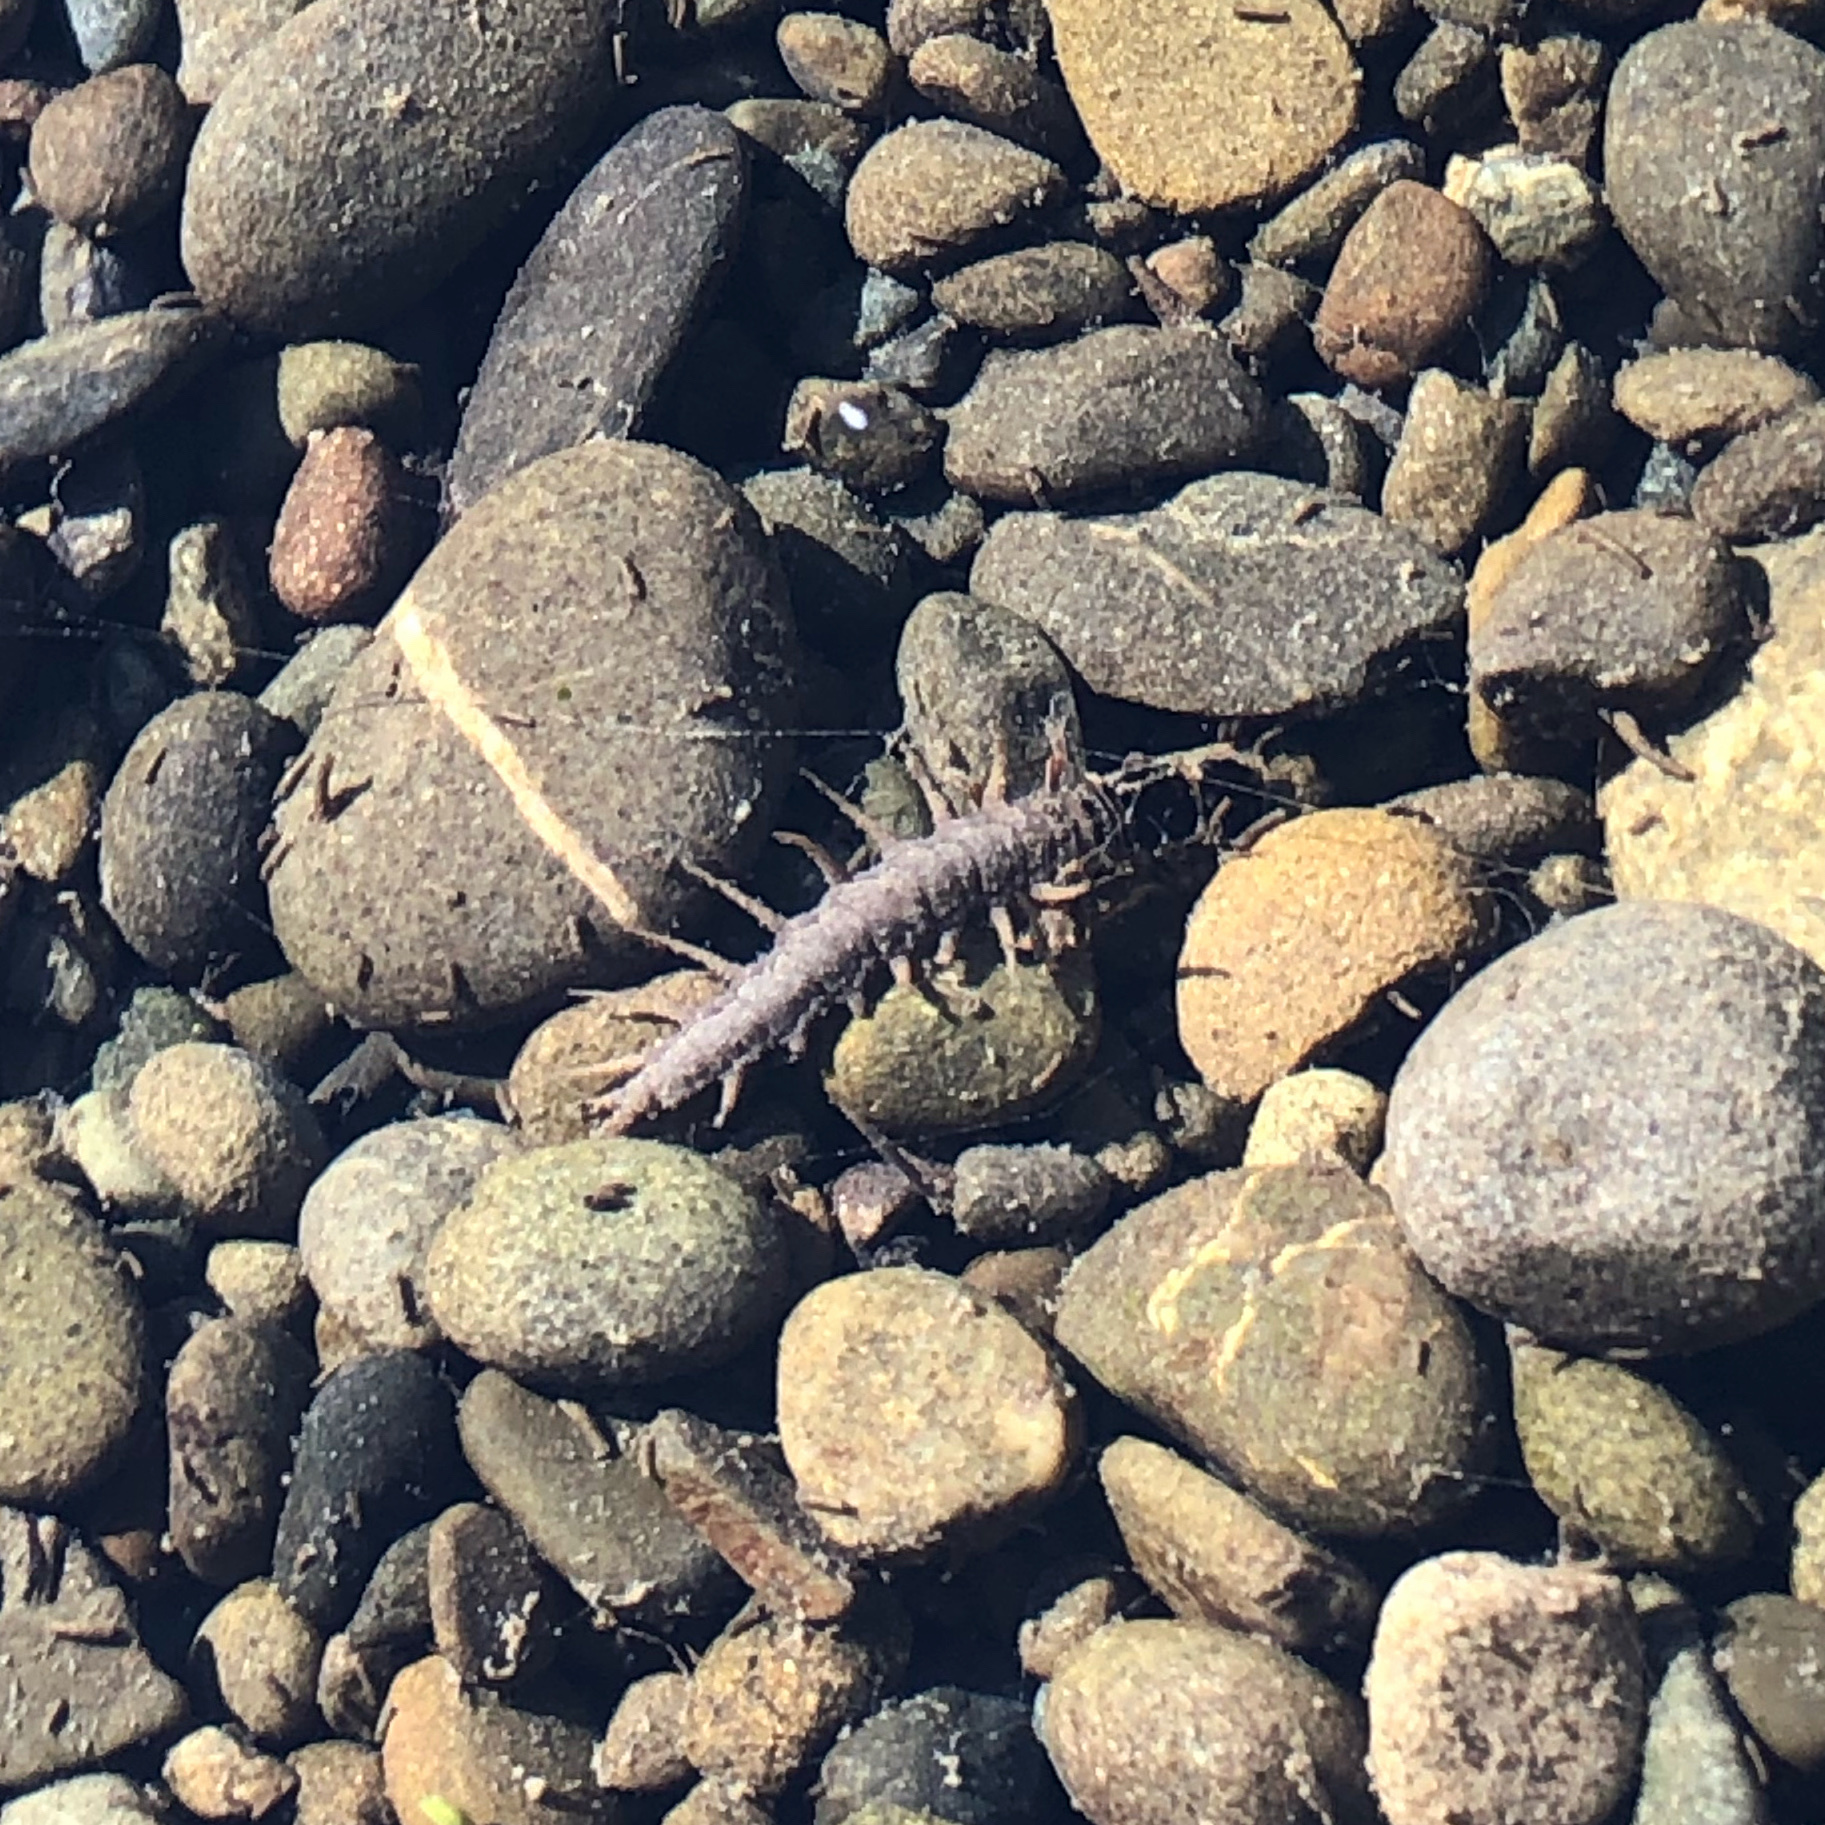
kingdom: Animalia
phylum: Arthropoda
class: Insecta
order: Megaloptera
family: Corydalidae
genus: Archichauliodes
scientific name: Archichauliodes diversus
